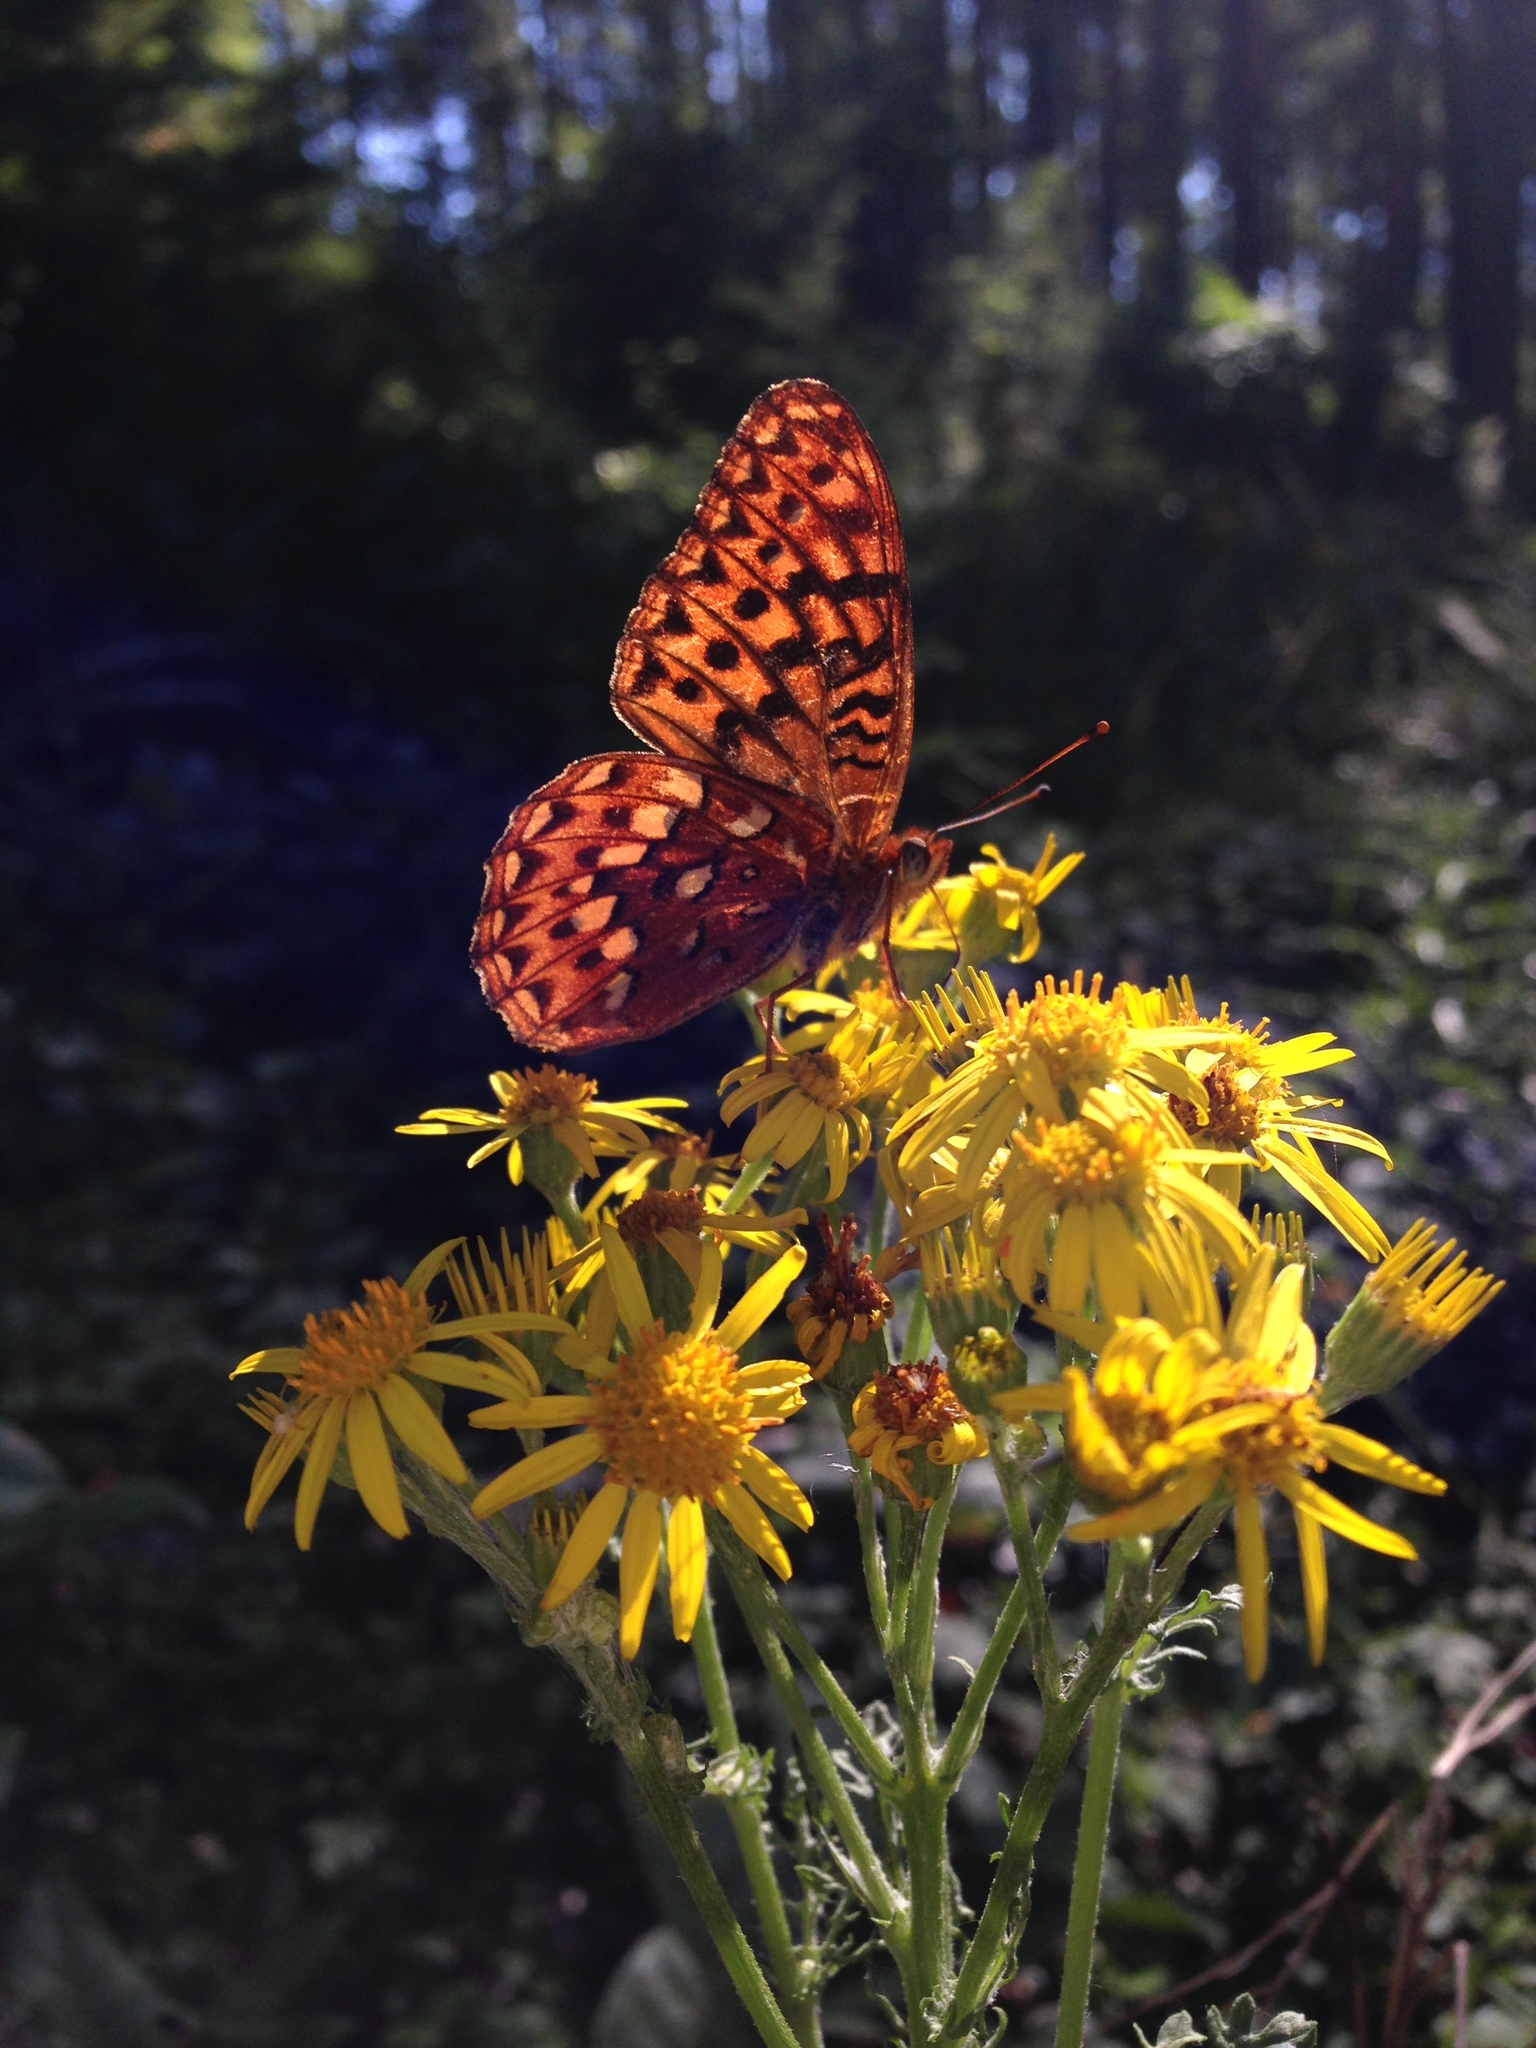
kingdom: Animalia
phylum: Arthropoda
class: Insecta
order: Lepidoptera
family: Nymphalidae
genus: Speyeria
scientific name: Speyeria hydaspe
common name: Hydaspe fritillary
